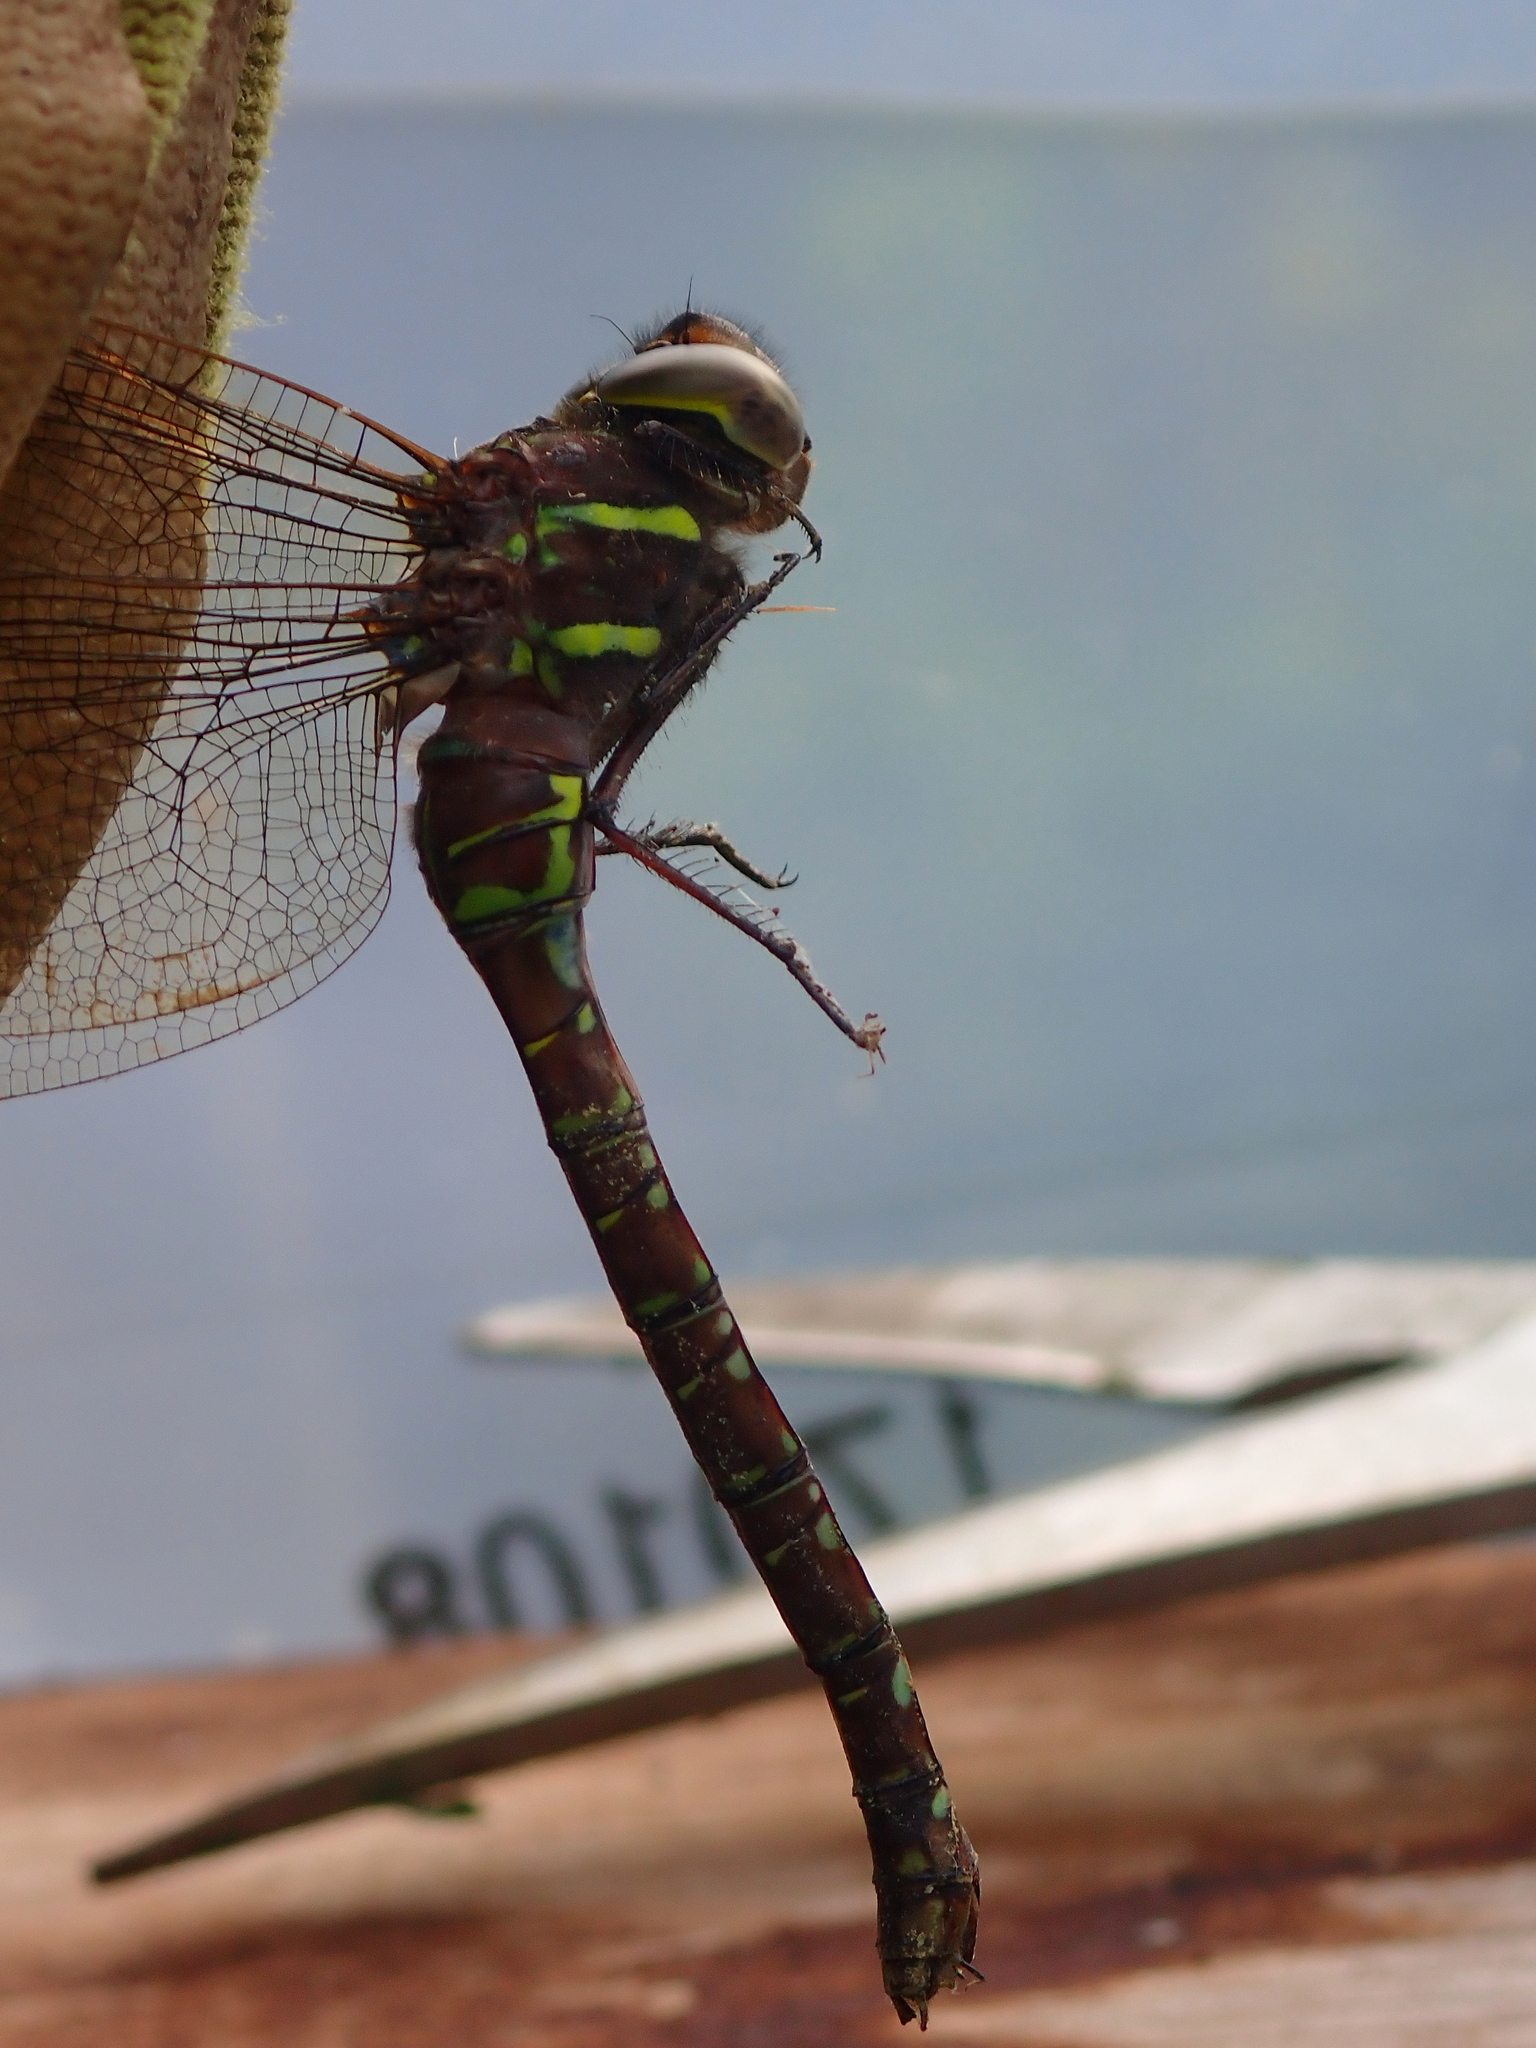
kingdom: Animalia
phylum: Arthropoda
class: Insecta
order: Odonata
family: Aeshnidae
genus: Aeshna
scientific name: Aeshna umbrosa
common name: Shadow darner
